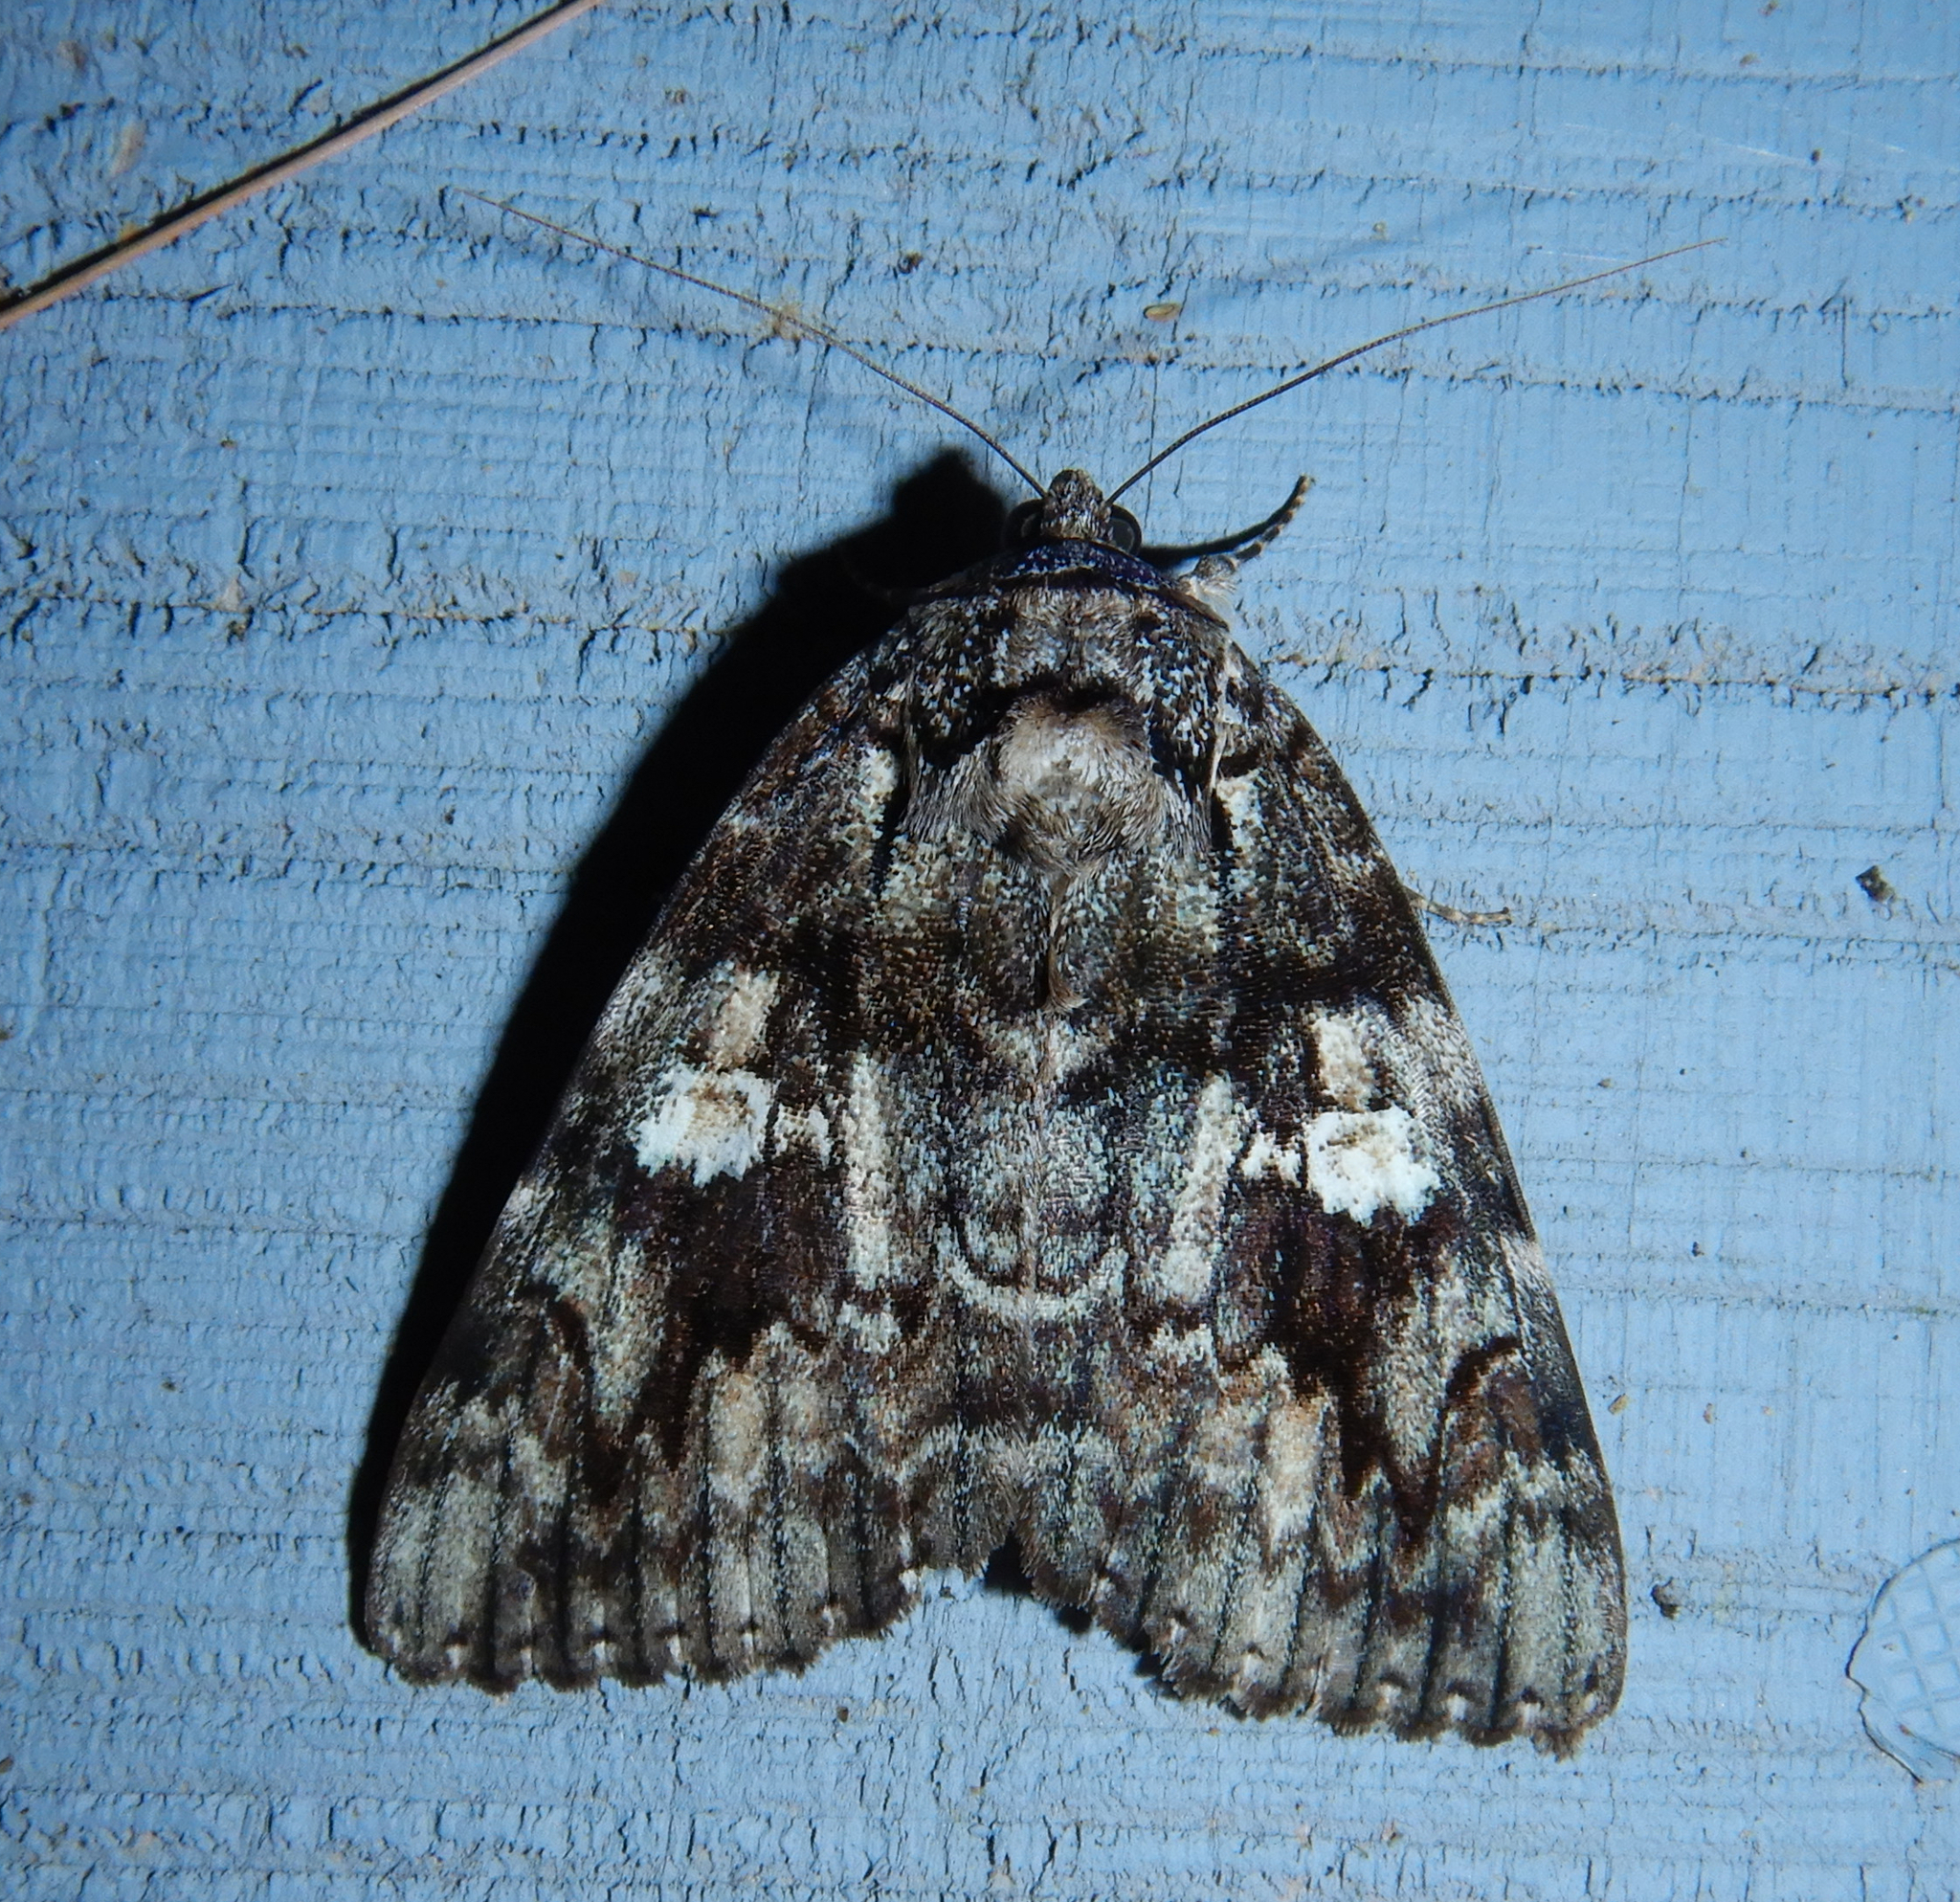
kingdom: Animalia
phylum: Arthropoda
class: Insecta
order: Lepidoptera
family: Erebidae
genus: Catocala
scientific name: Catocala ilia
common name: Ilia underwing
